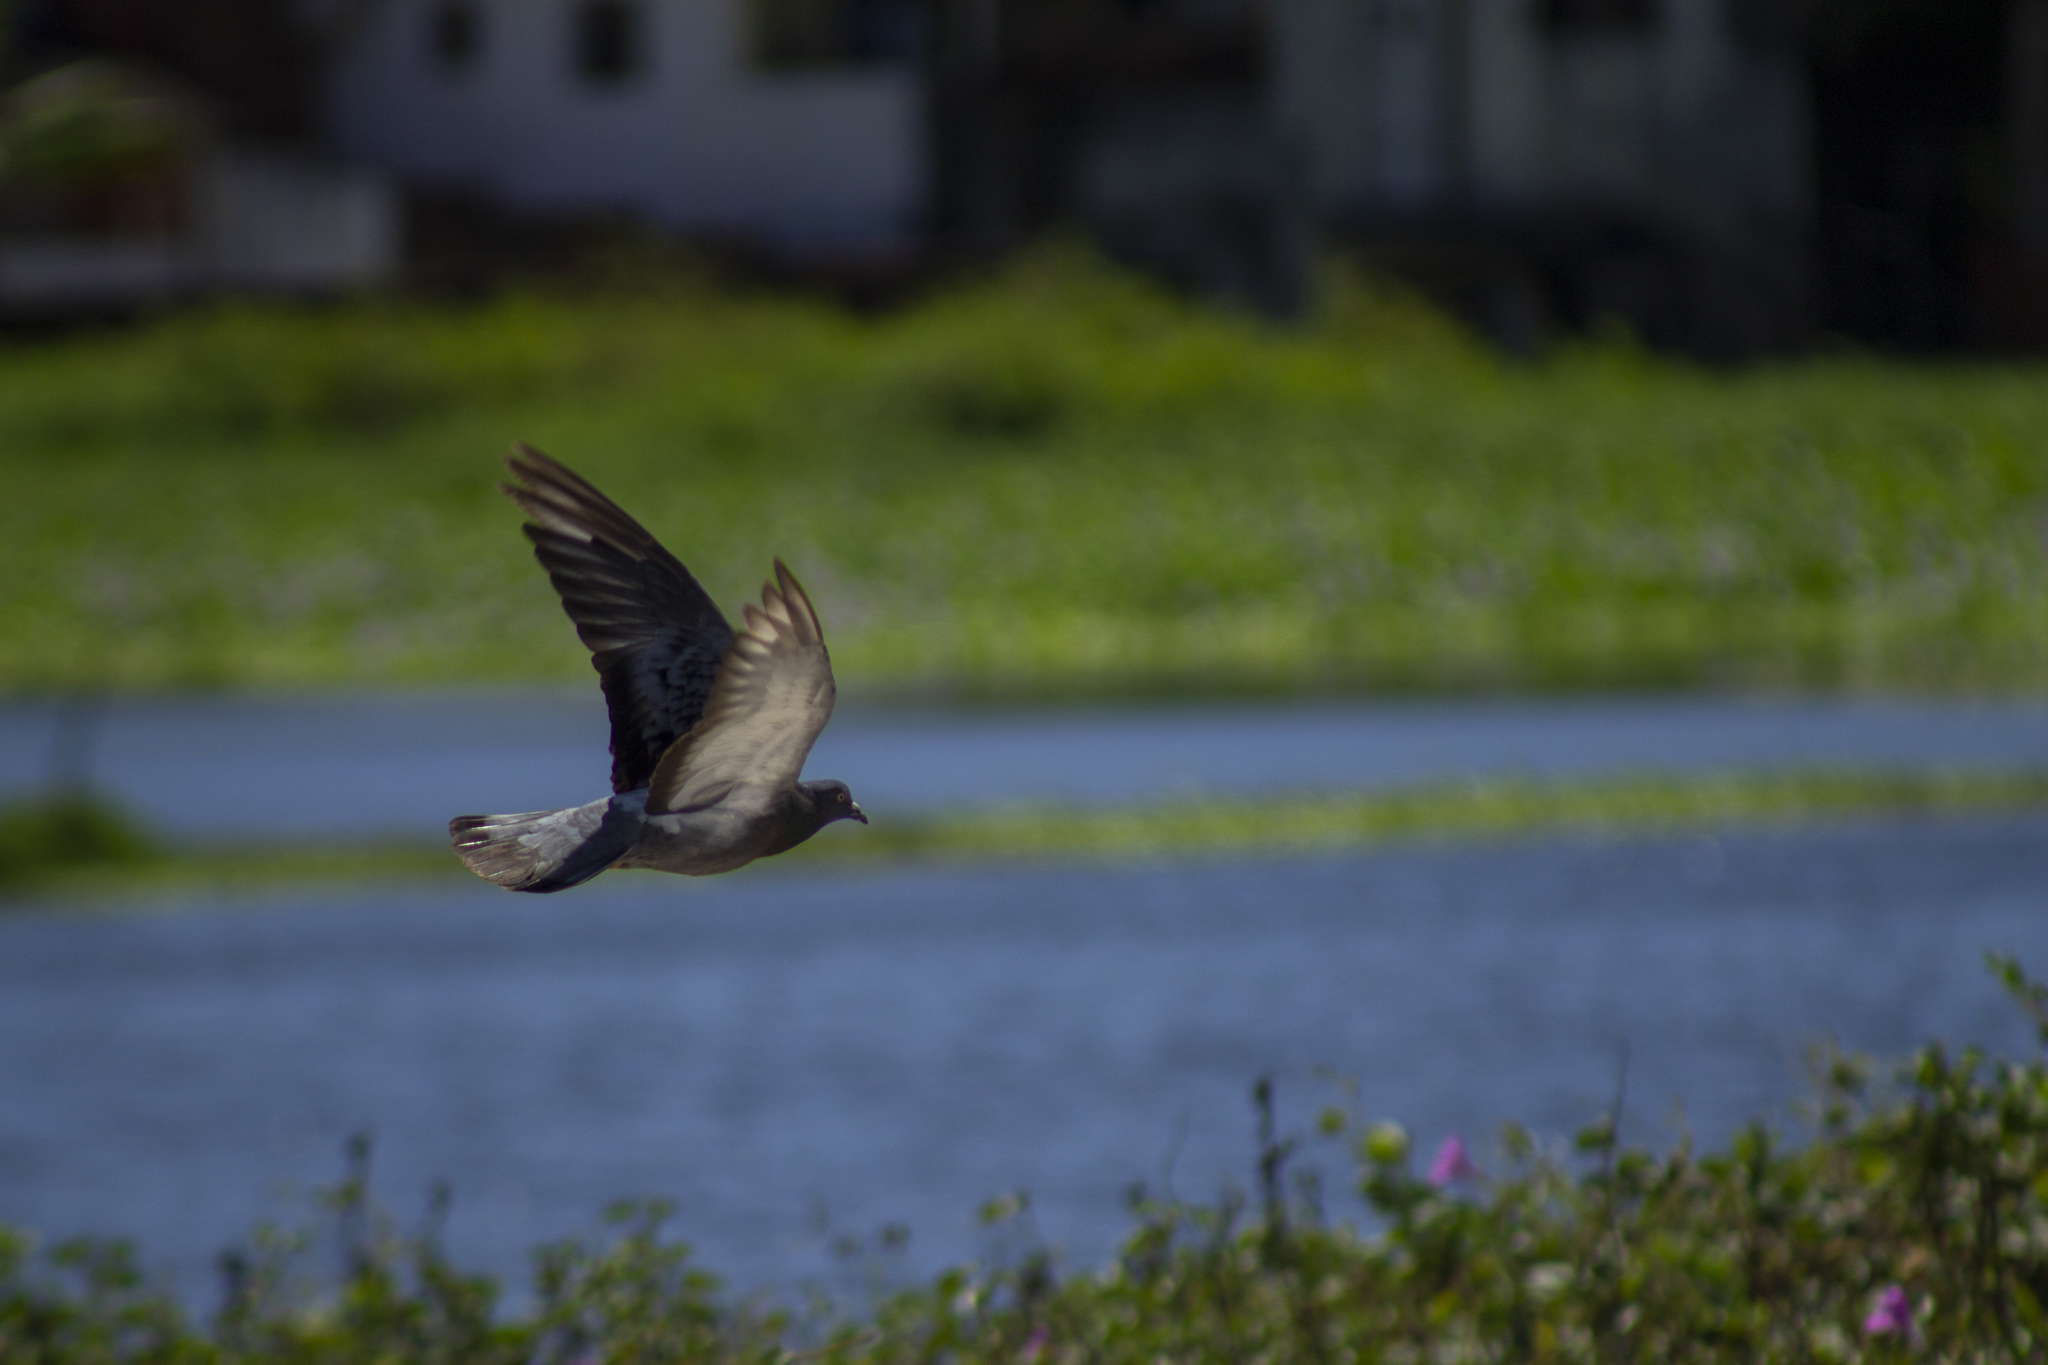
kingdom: Animalia
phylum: Chordata
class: Aves
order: Columbiformes
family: Columbidae
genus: Columba
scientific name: Columba livia
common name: Rock pigeon
